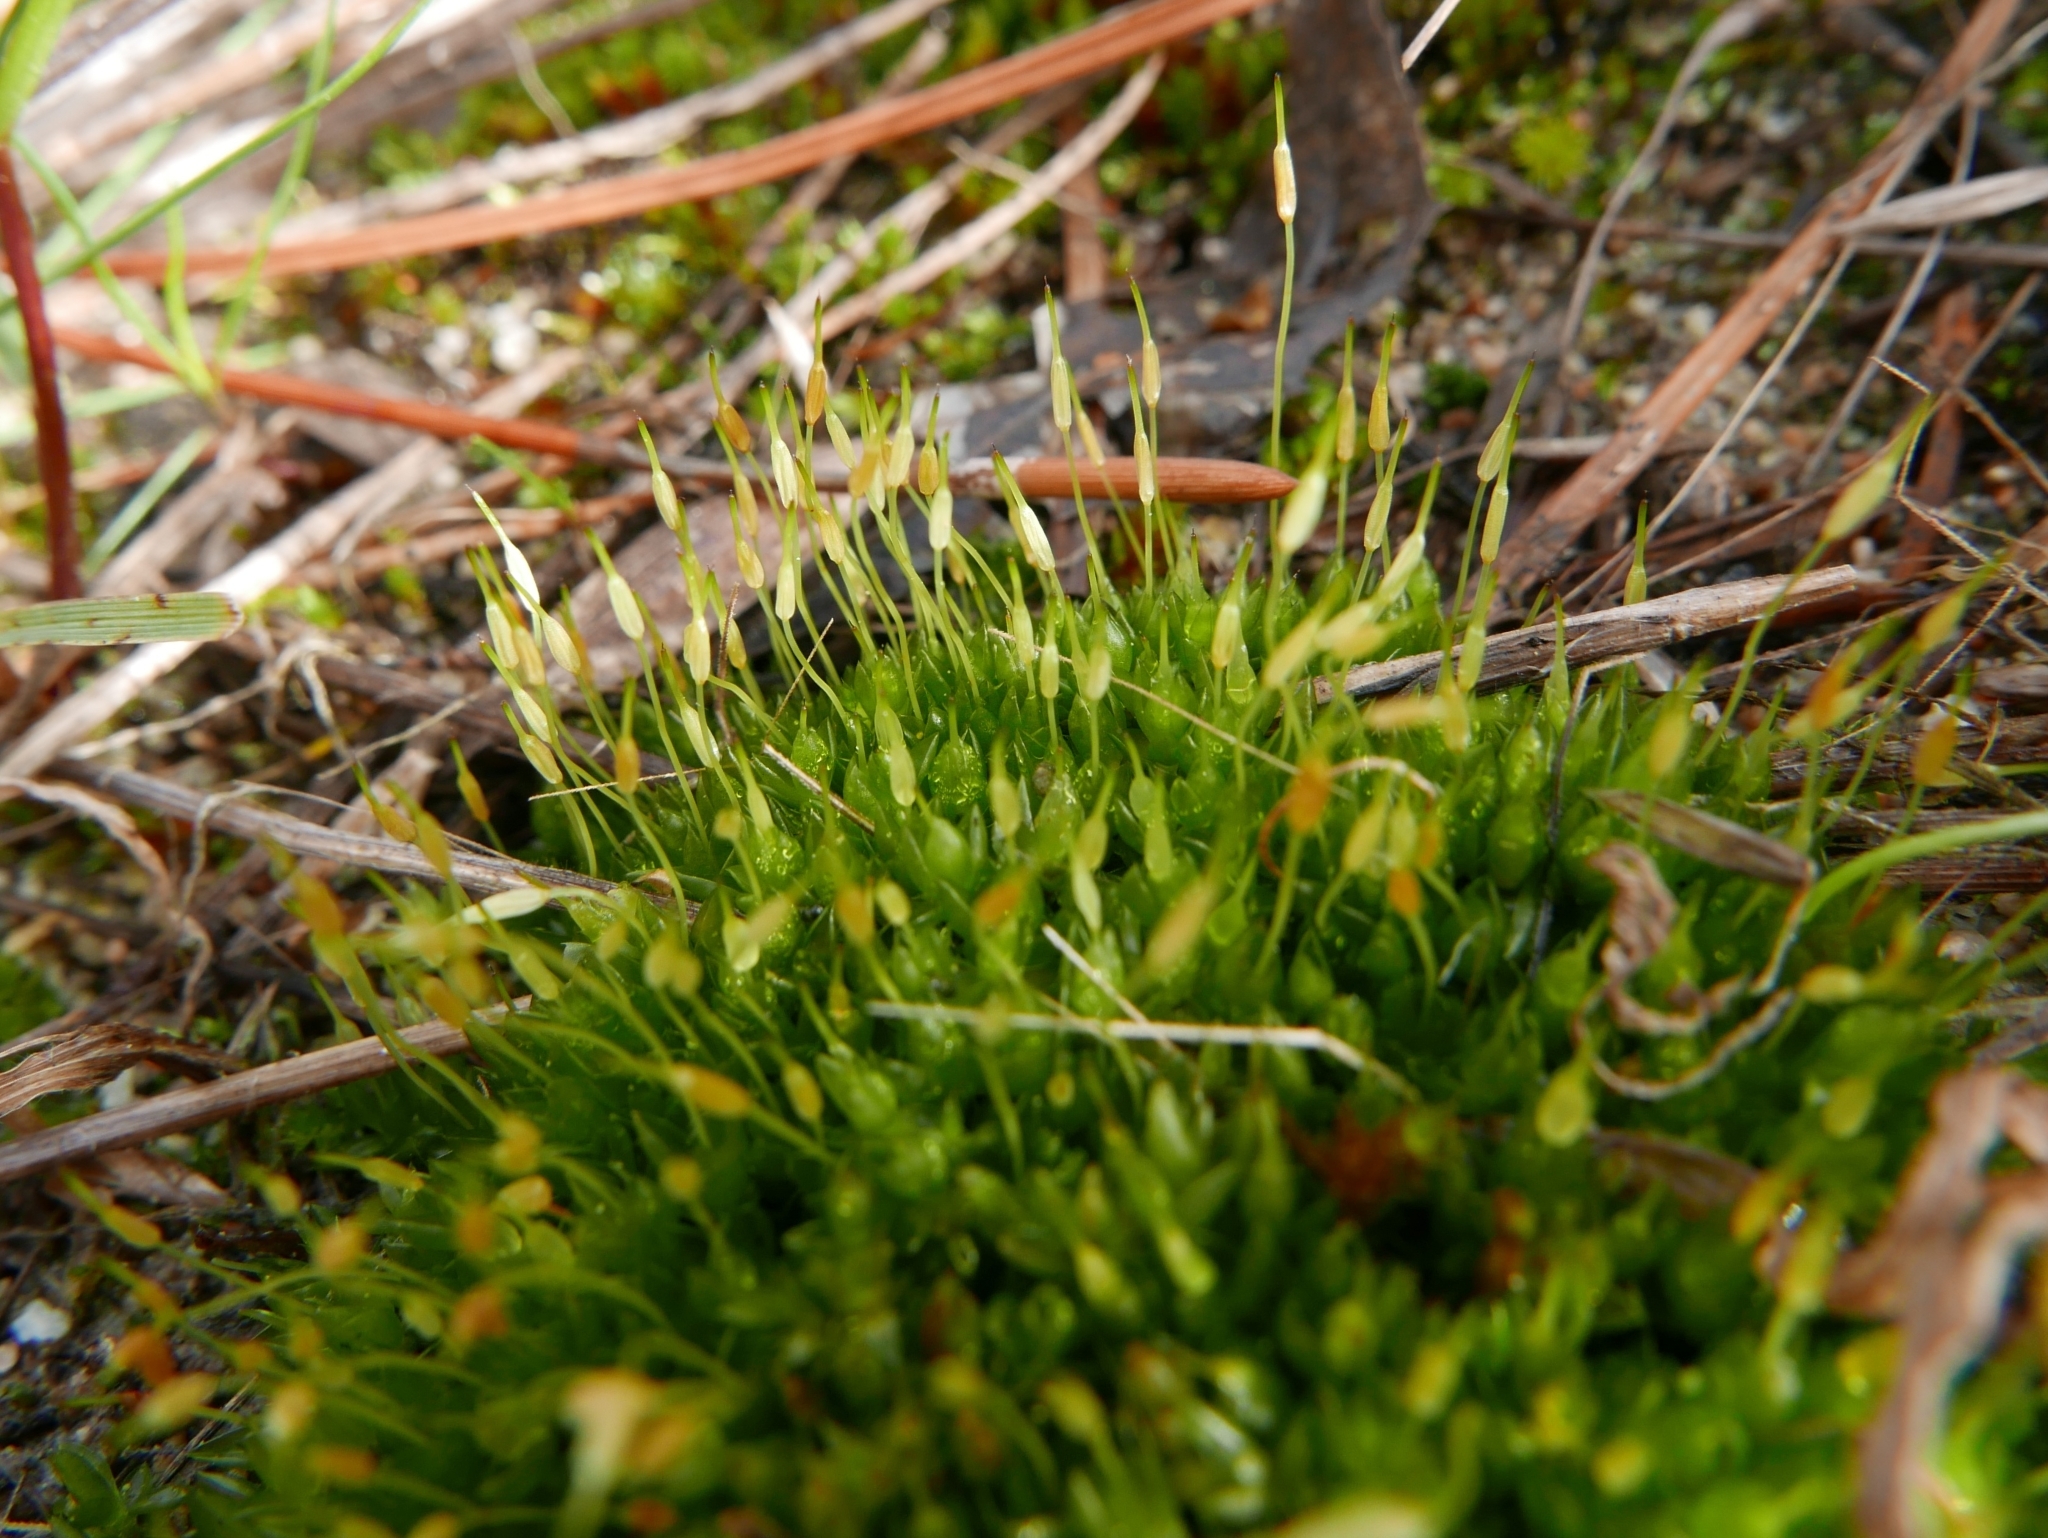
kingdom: Plantae
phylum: Bryophyta
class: Bryopsida
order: Funariales
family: Funariaceae
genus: Funaria
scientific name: Funaria hygrometrica
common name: Common cord moss
